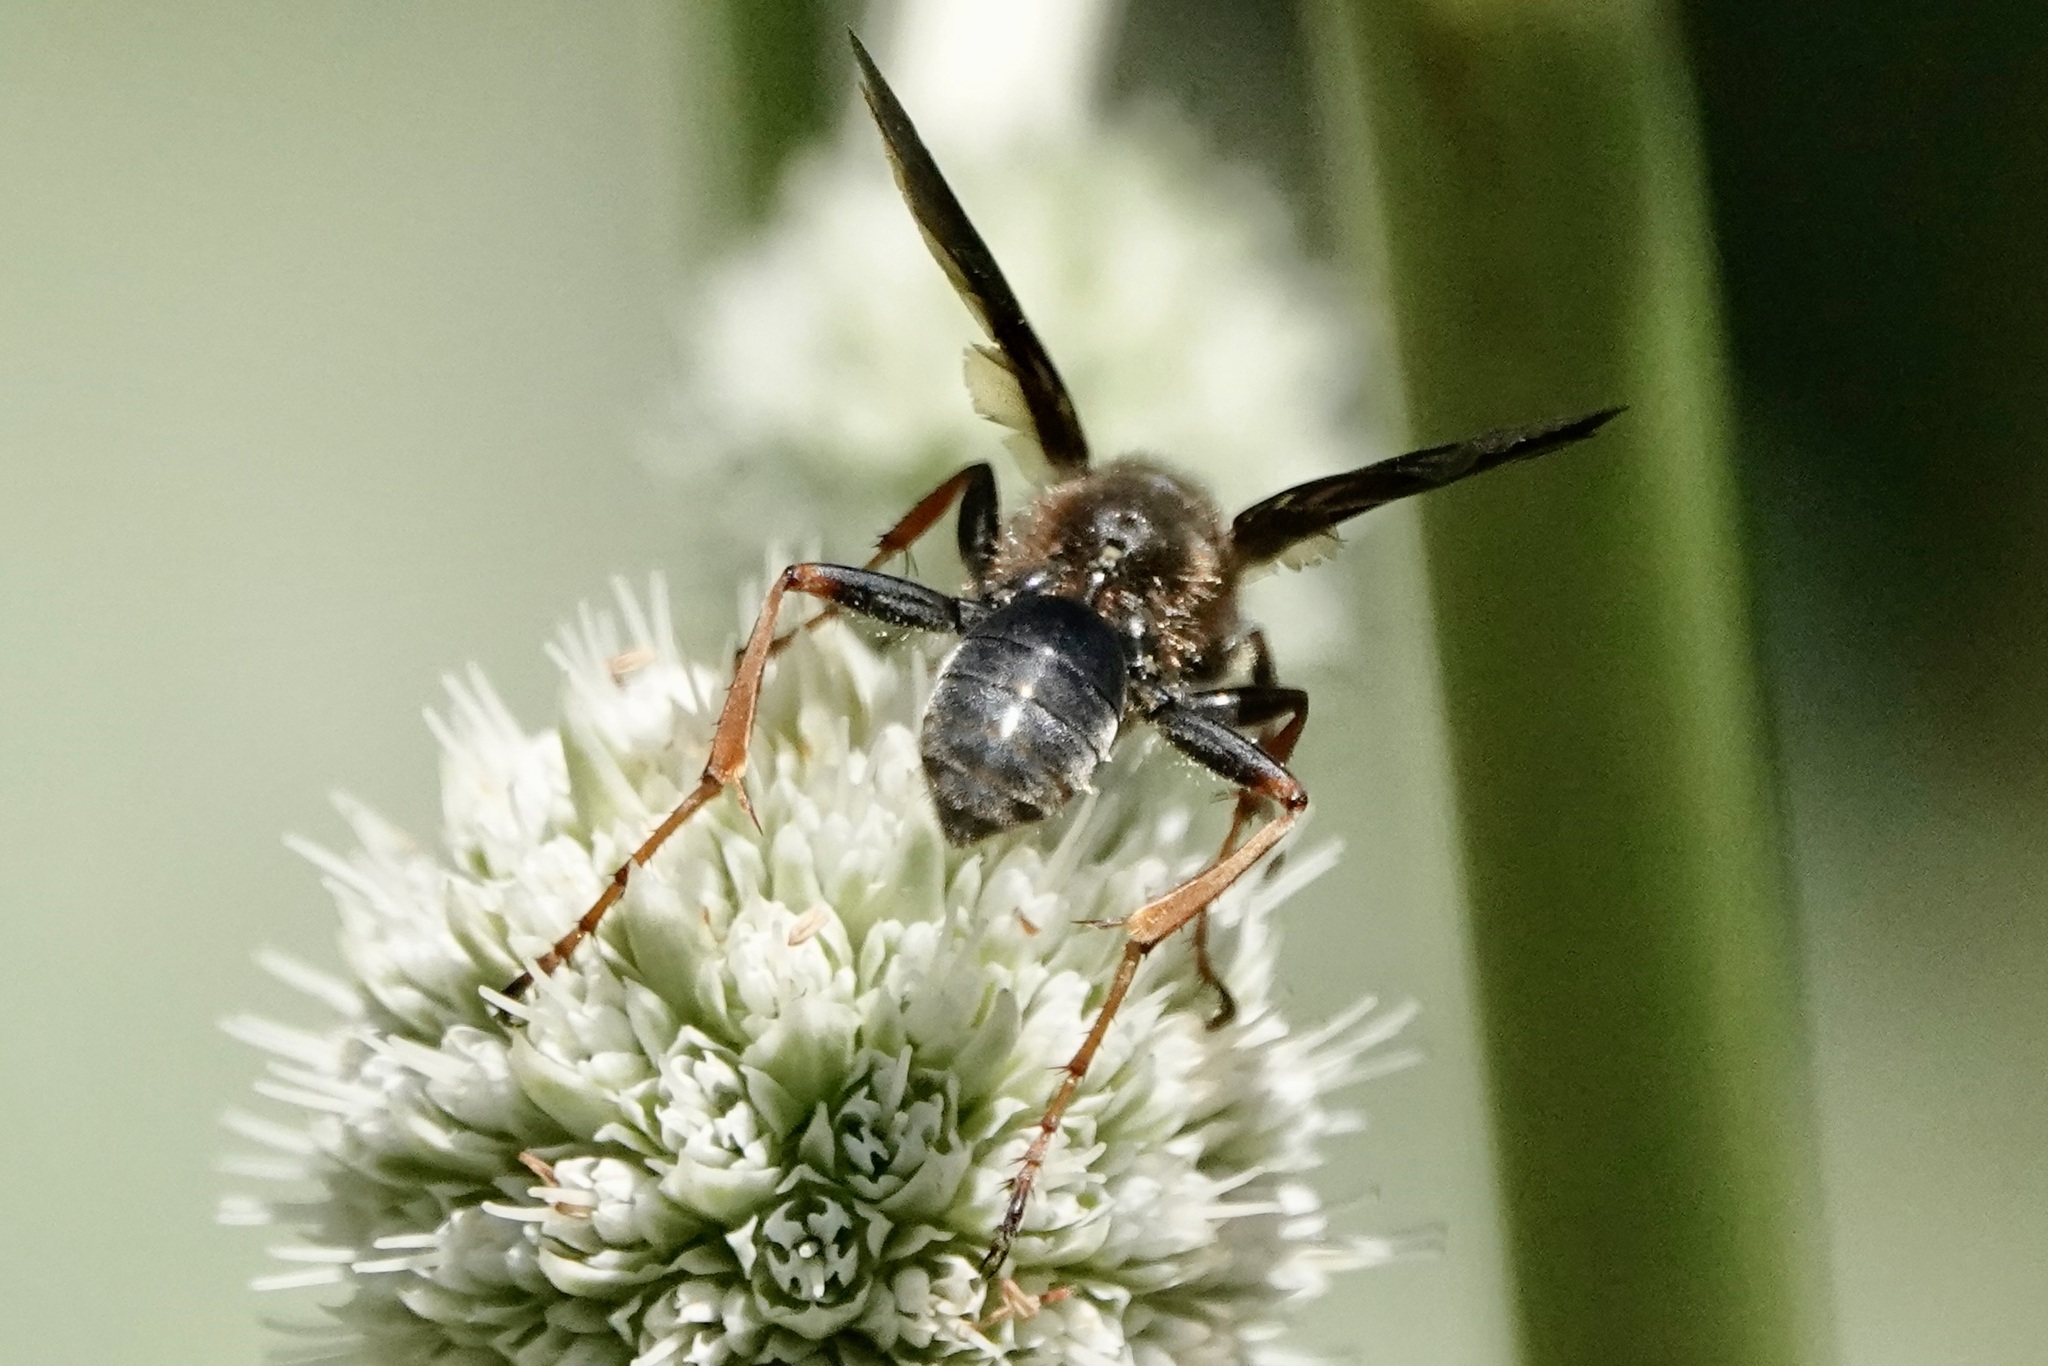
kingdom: Animalia
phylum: Arthropoda
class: Insecta
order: Hymenoptera
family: Sphecidae
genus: Isodontia
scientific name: Isodontia auripes
